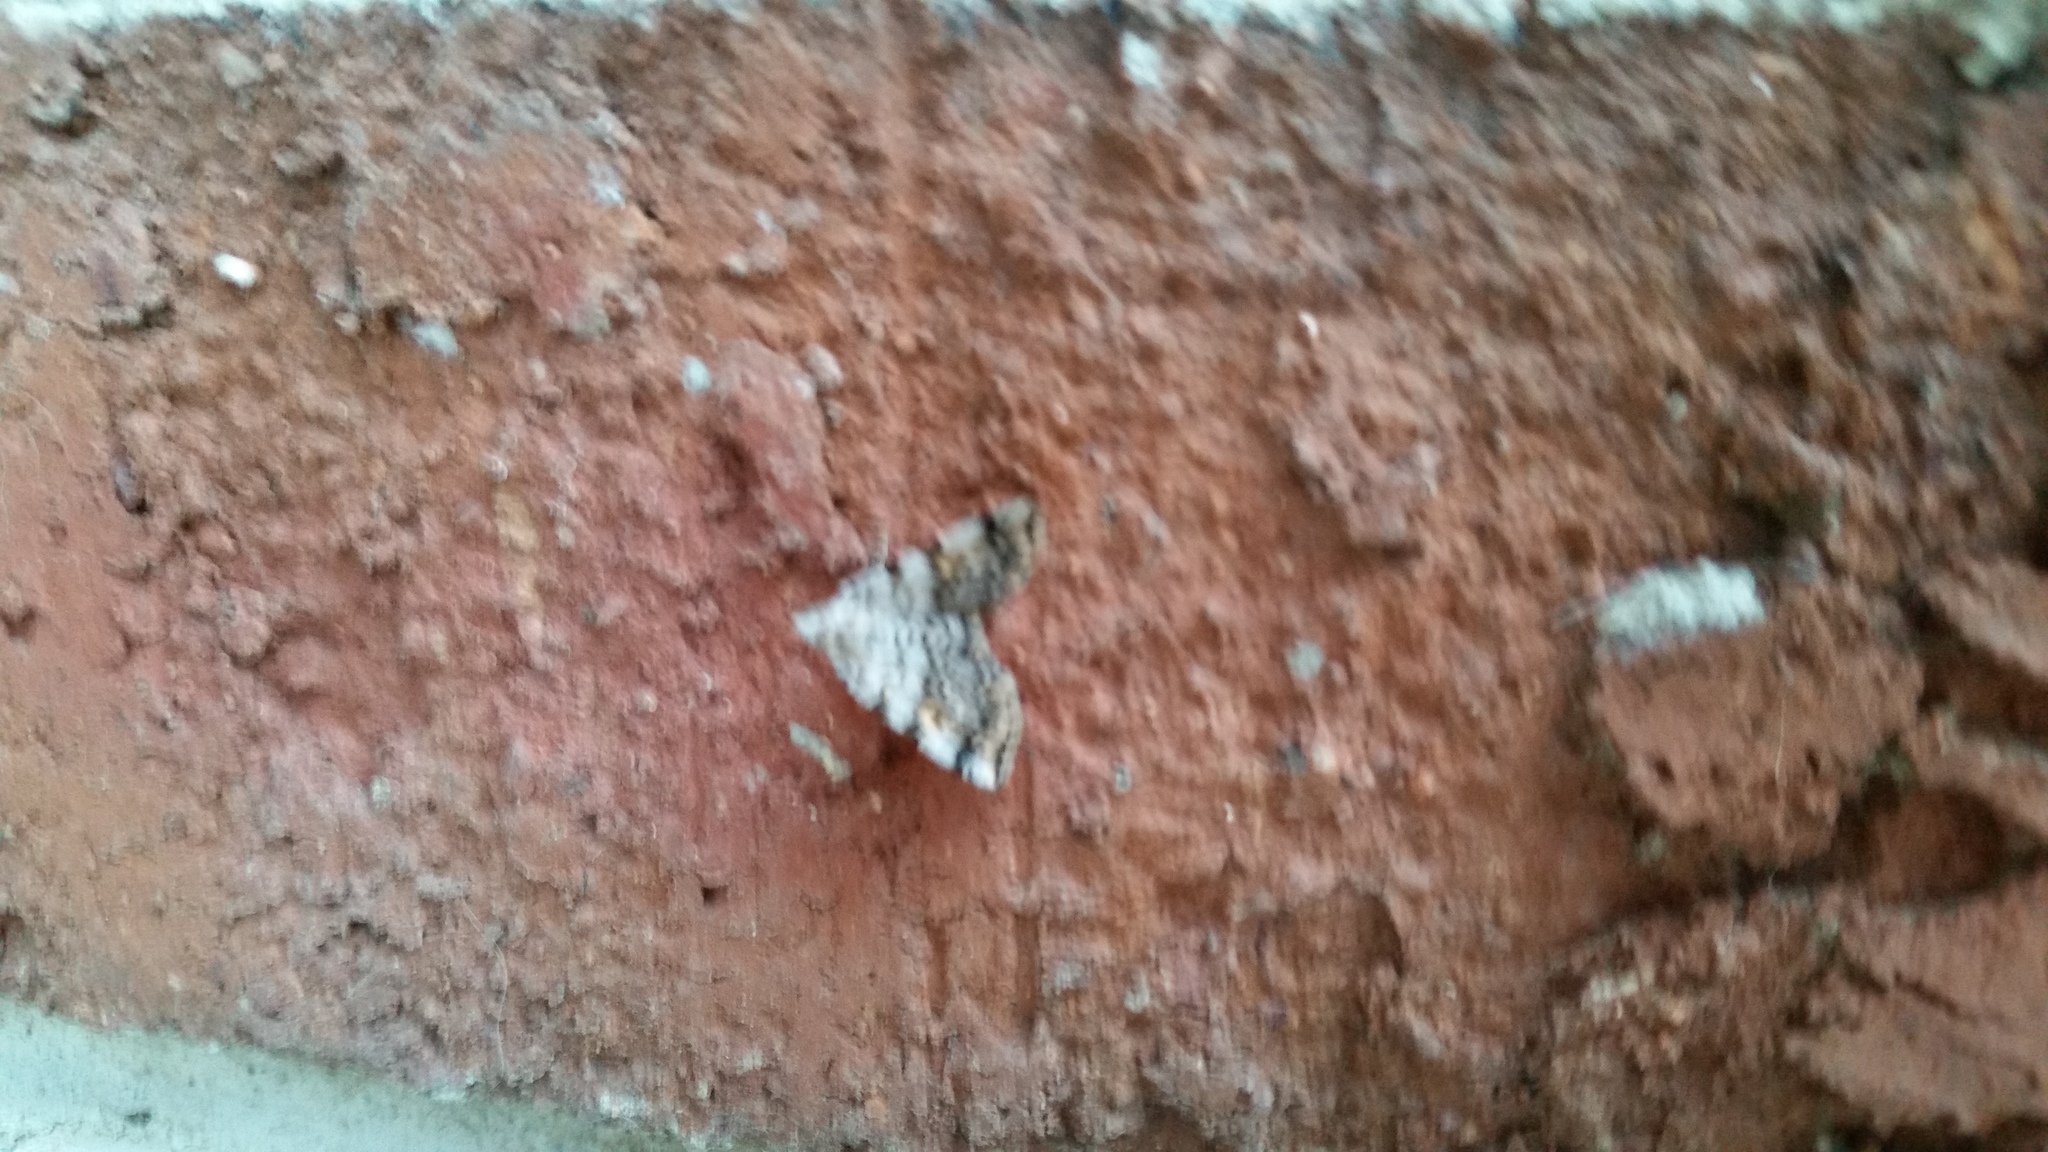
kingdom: Animalia
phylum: Arthropoda
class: Insecta
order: Lepidoptera
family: Erebidae
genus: Idia
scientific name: Idia americalis
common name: American idia moth
